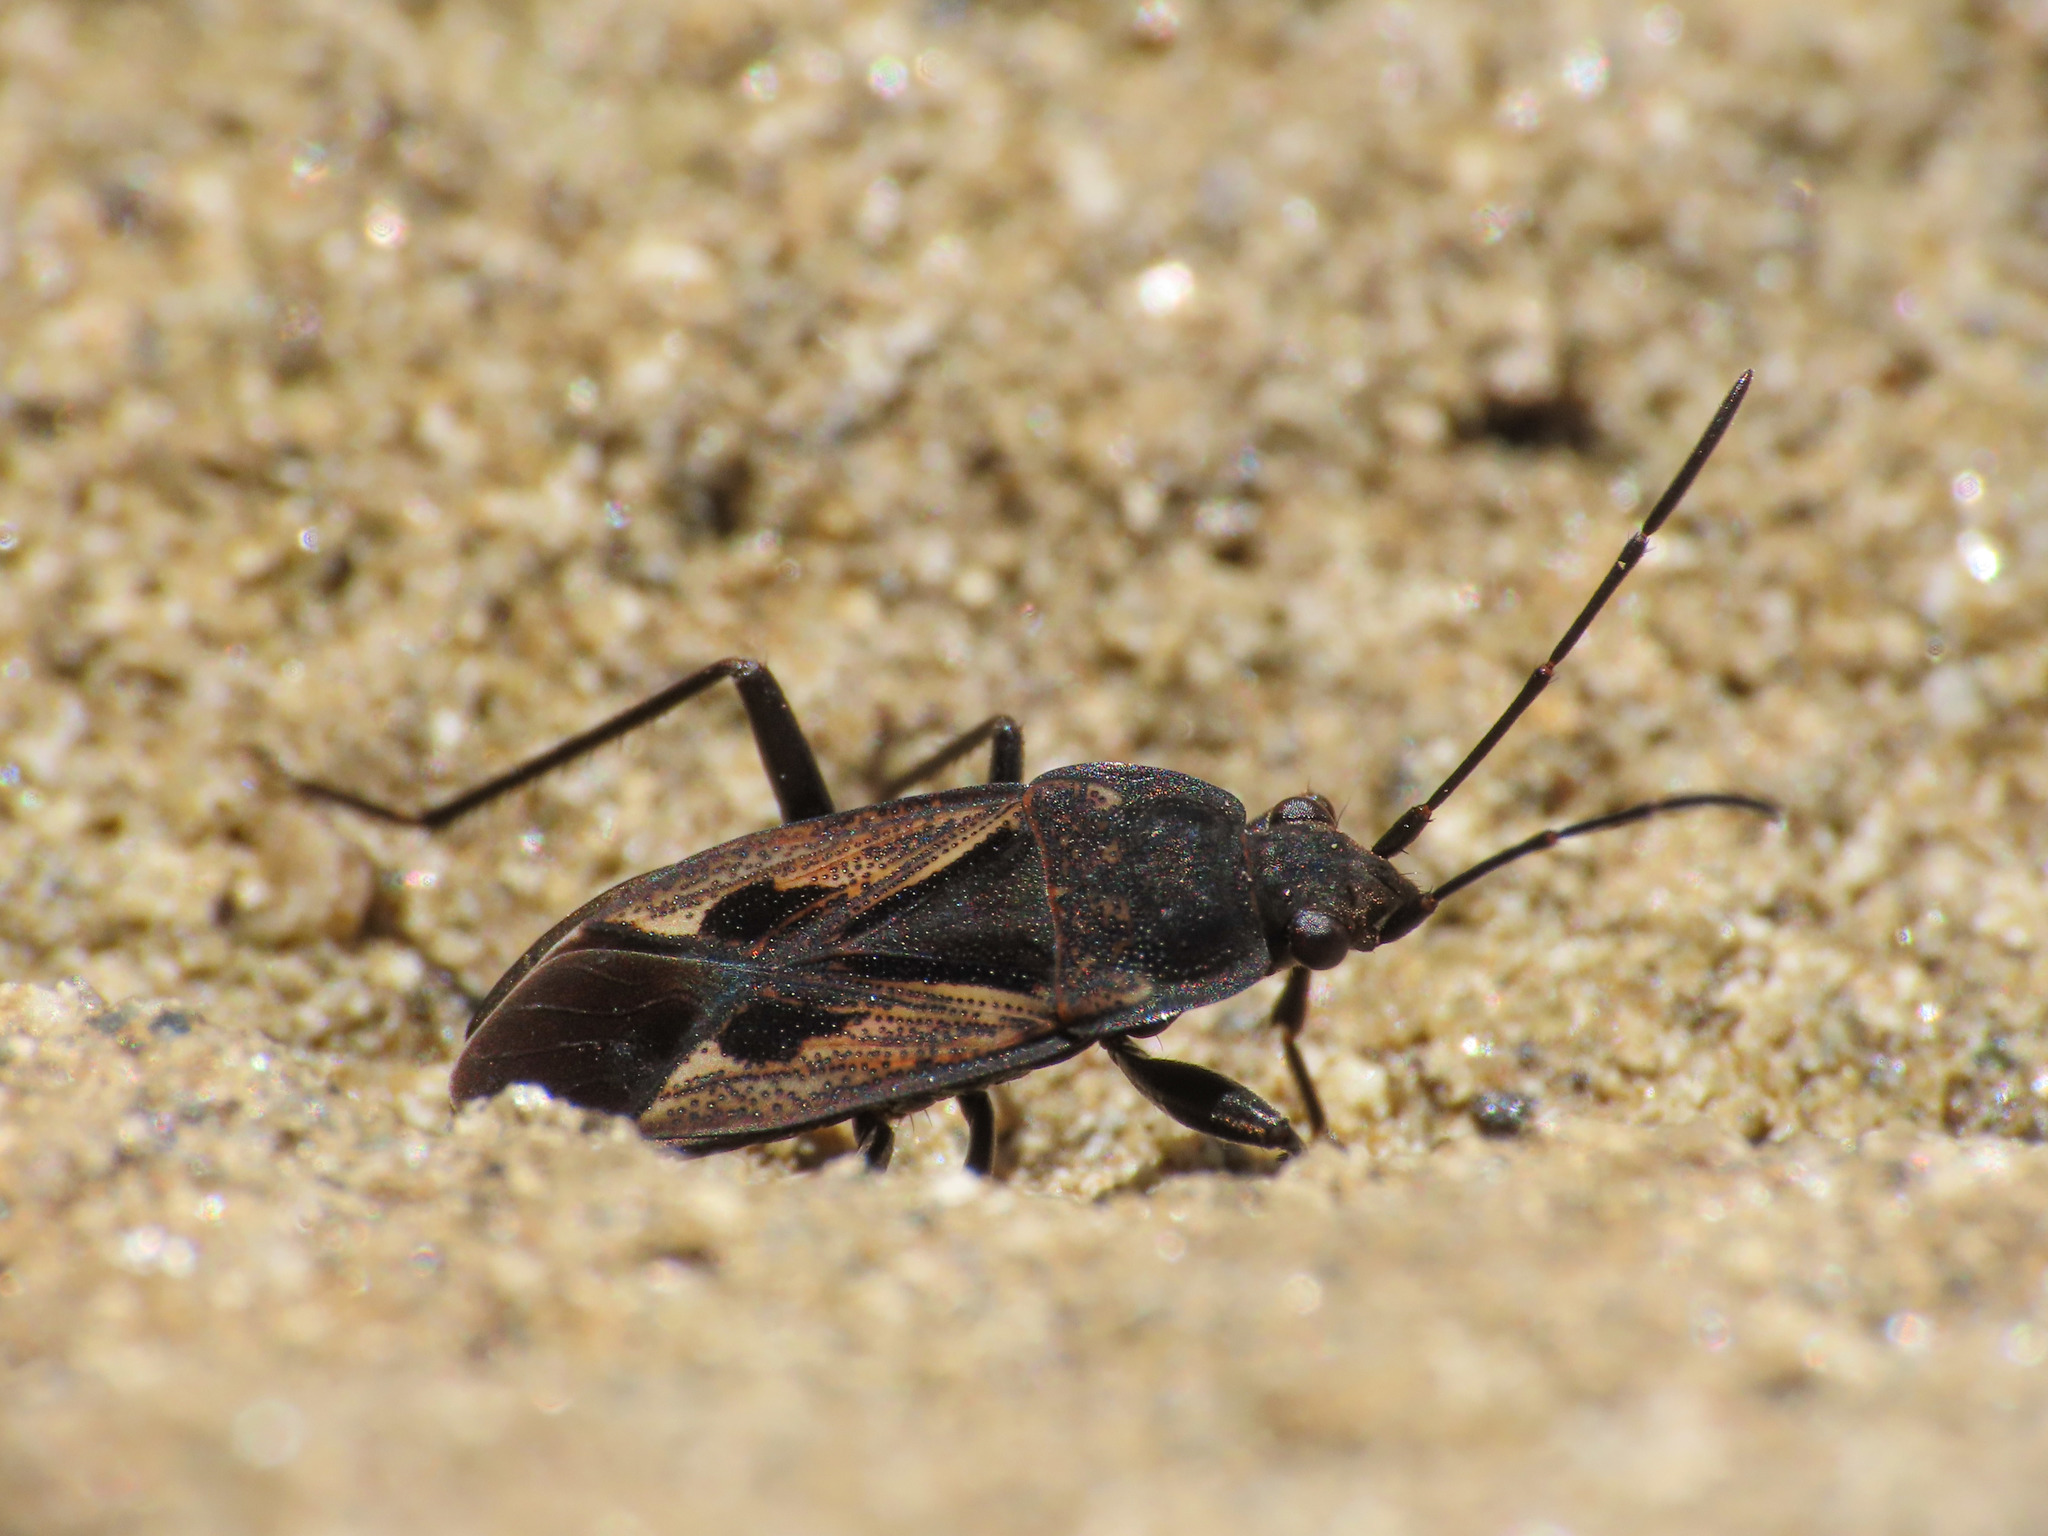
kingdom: Animalia
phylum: Arthropoda
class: Insecta
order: Hemiptera
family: Rhyparochromidae
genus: Rhyparochromus
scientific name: Rhyparochromus pini
